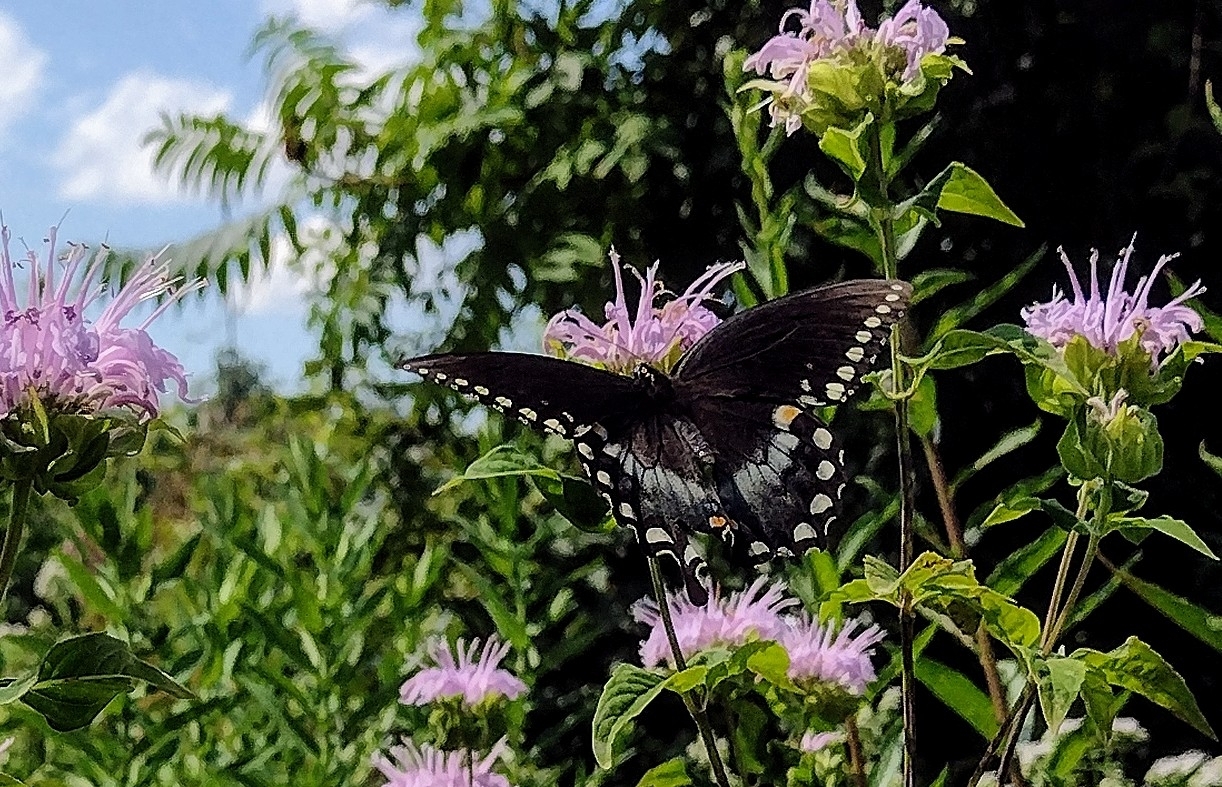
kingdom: Animalia
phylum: Arthropoda
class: Insecta
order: Lepidoptera
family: Papilionidae
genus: Papilio
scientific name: Papilio troilus
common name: Spicebush swallowtail
